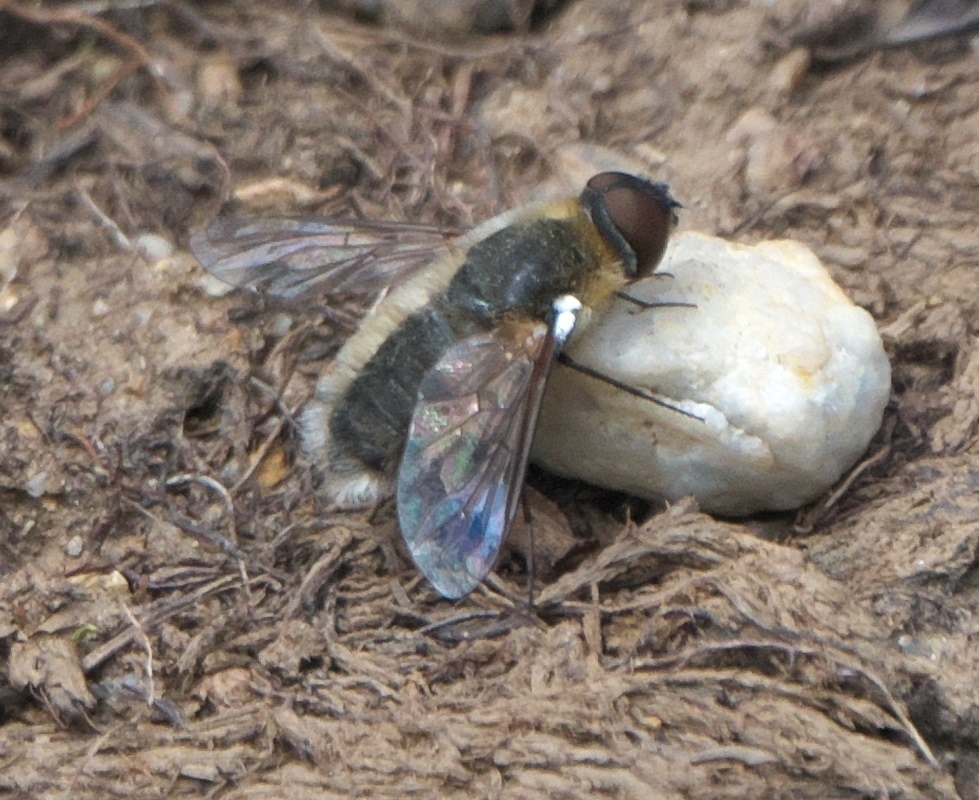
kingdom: Animalia
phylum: Arthropoda
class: Insecta
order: Diptera
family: Bombyliidae
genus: Villa
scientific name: Villa agrippina
